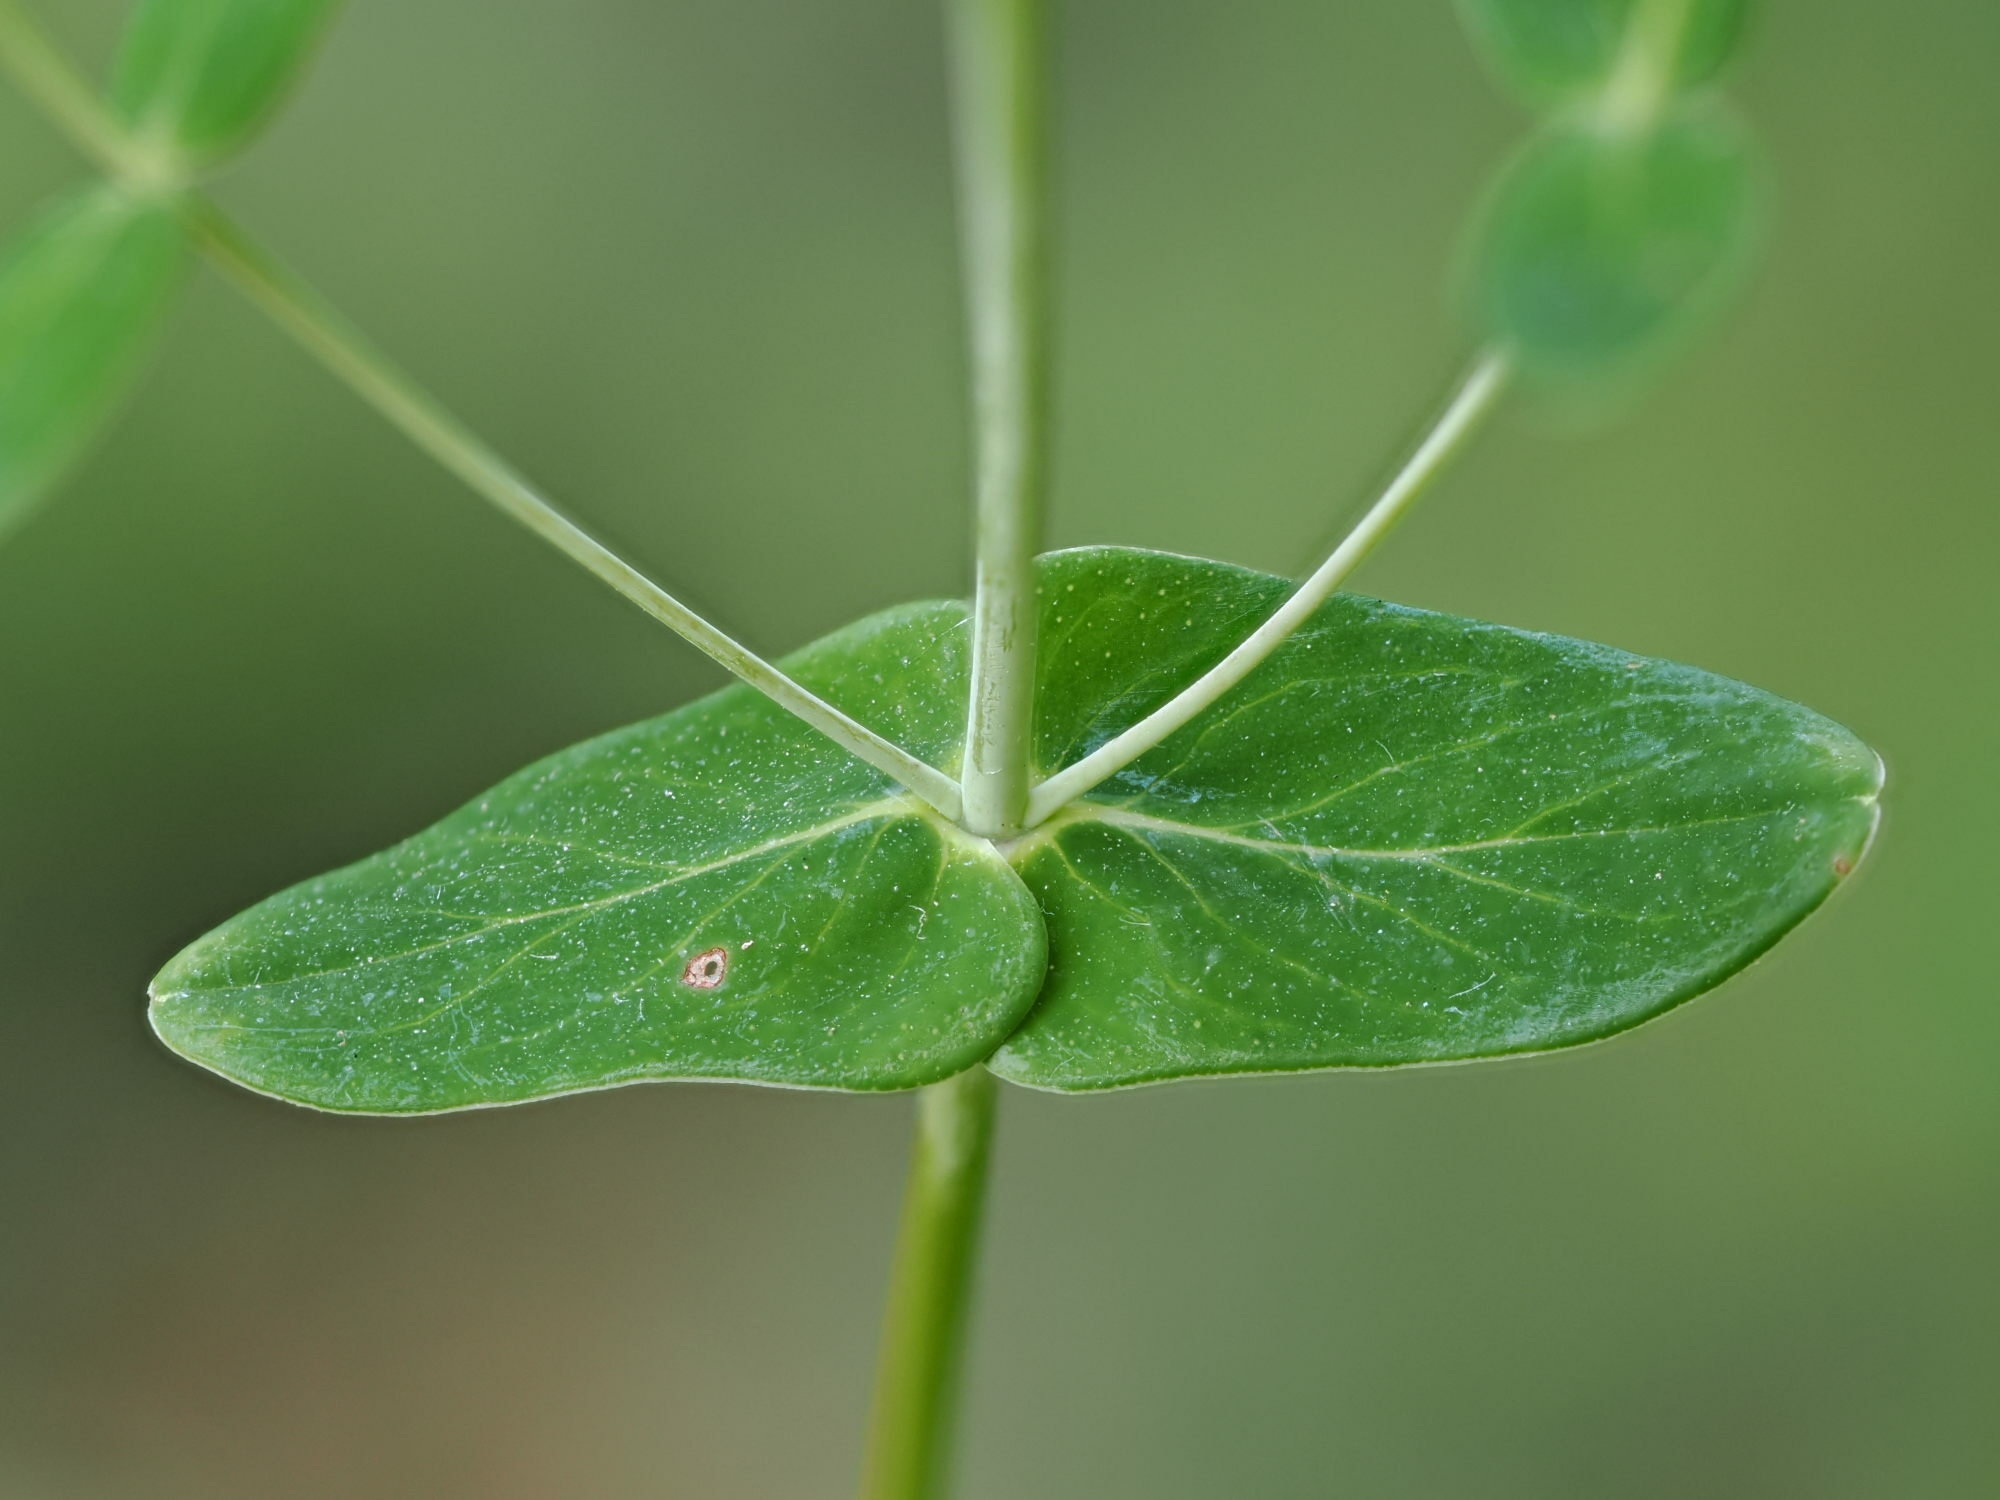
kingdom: Plantae
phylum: Tracheophyta
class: Magnoliopsida
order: Malpighiales
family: Hypericaceae
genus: Hypericum
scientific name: Hypericum pulchrum
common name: Slender st. john's-wort
